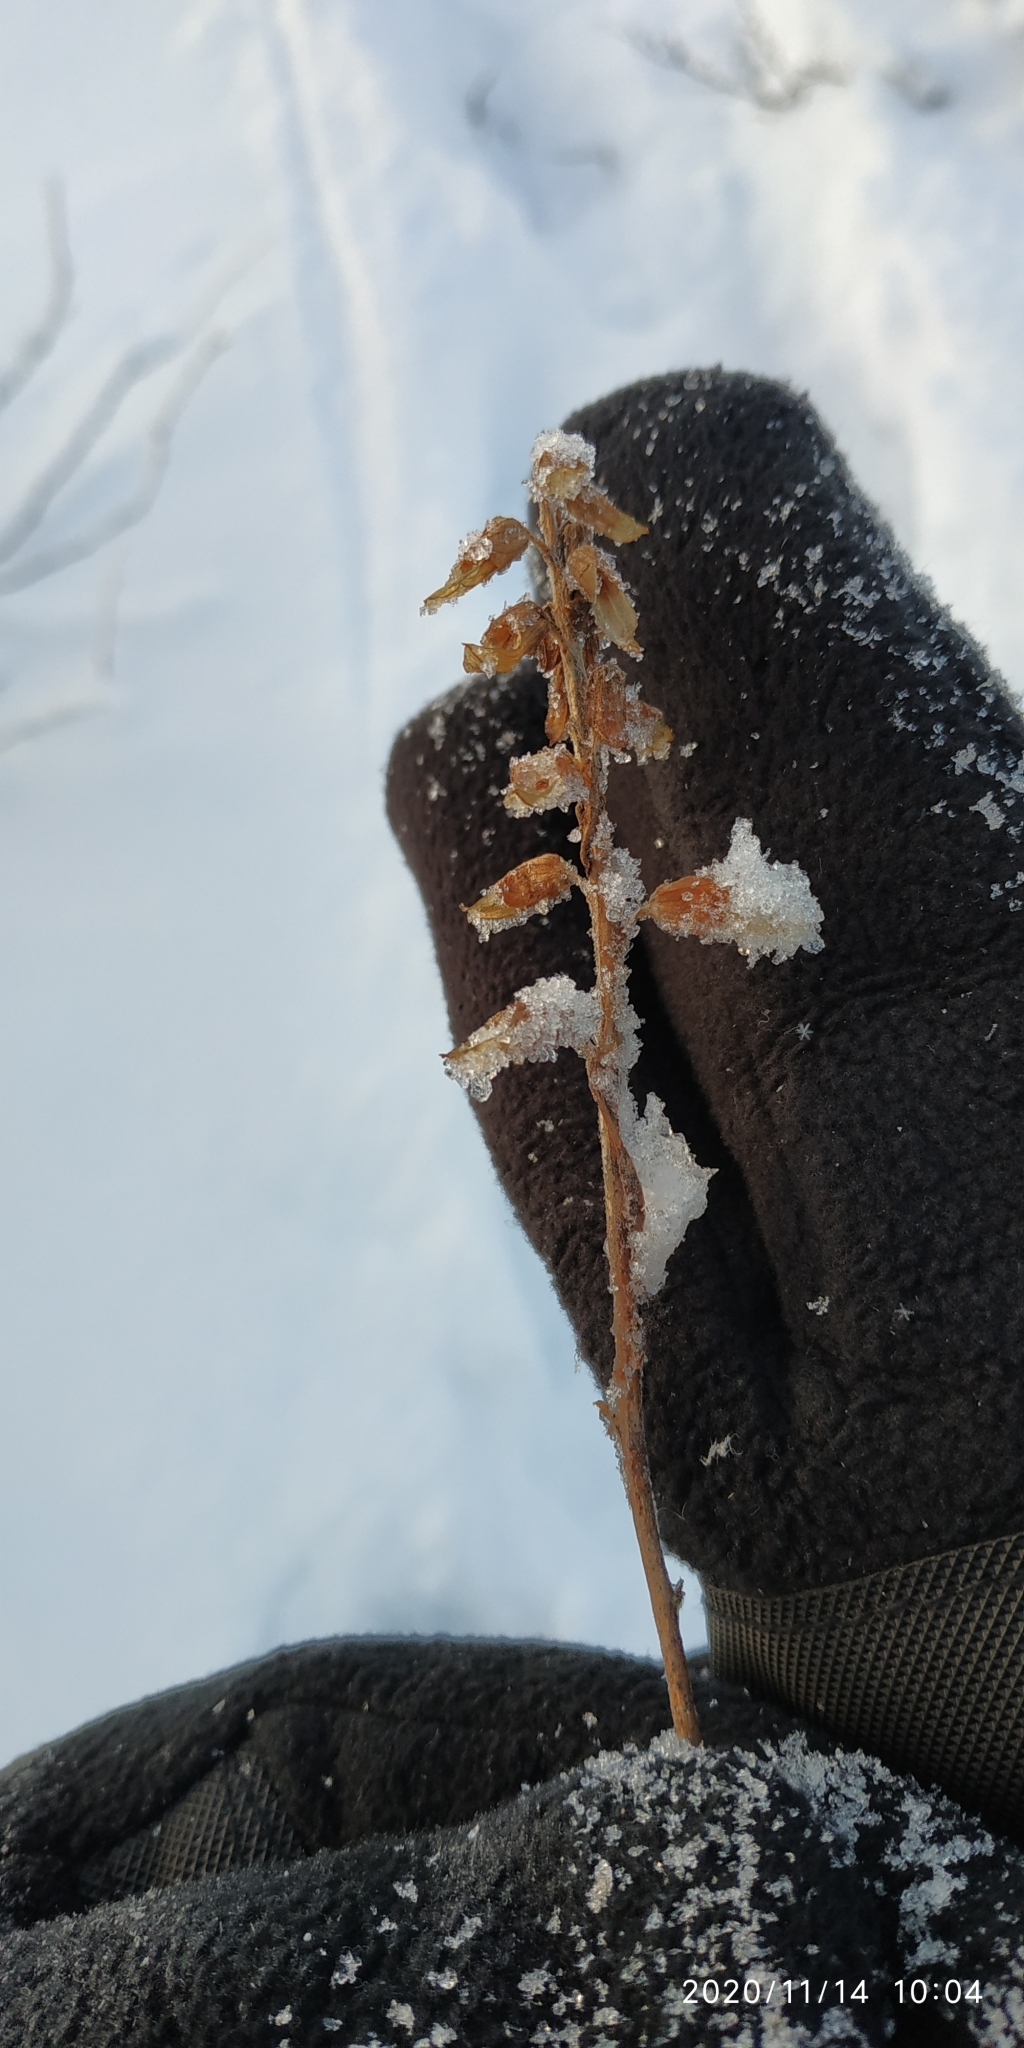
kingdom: Plantae
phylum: Tracheophyta
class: Magnoliopsida
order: Lamiales
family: Orobanchaceae
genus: Pedicularis
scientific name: Pedicularis labradorica
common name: Labrador lousewort
